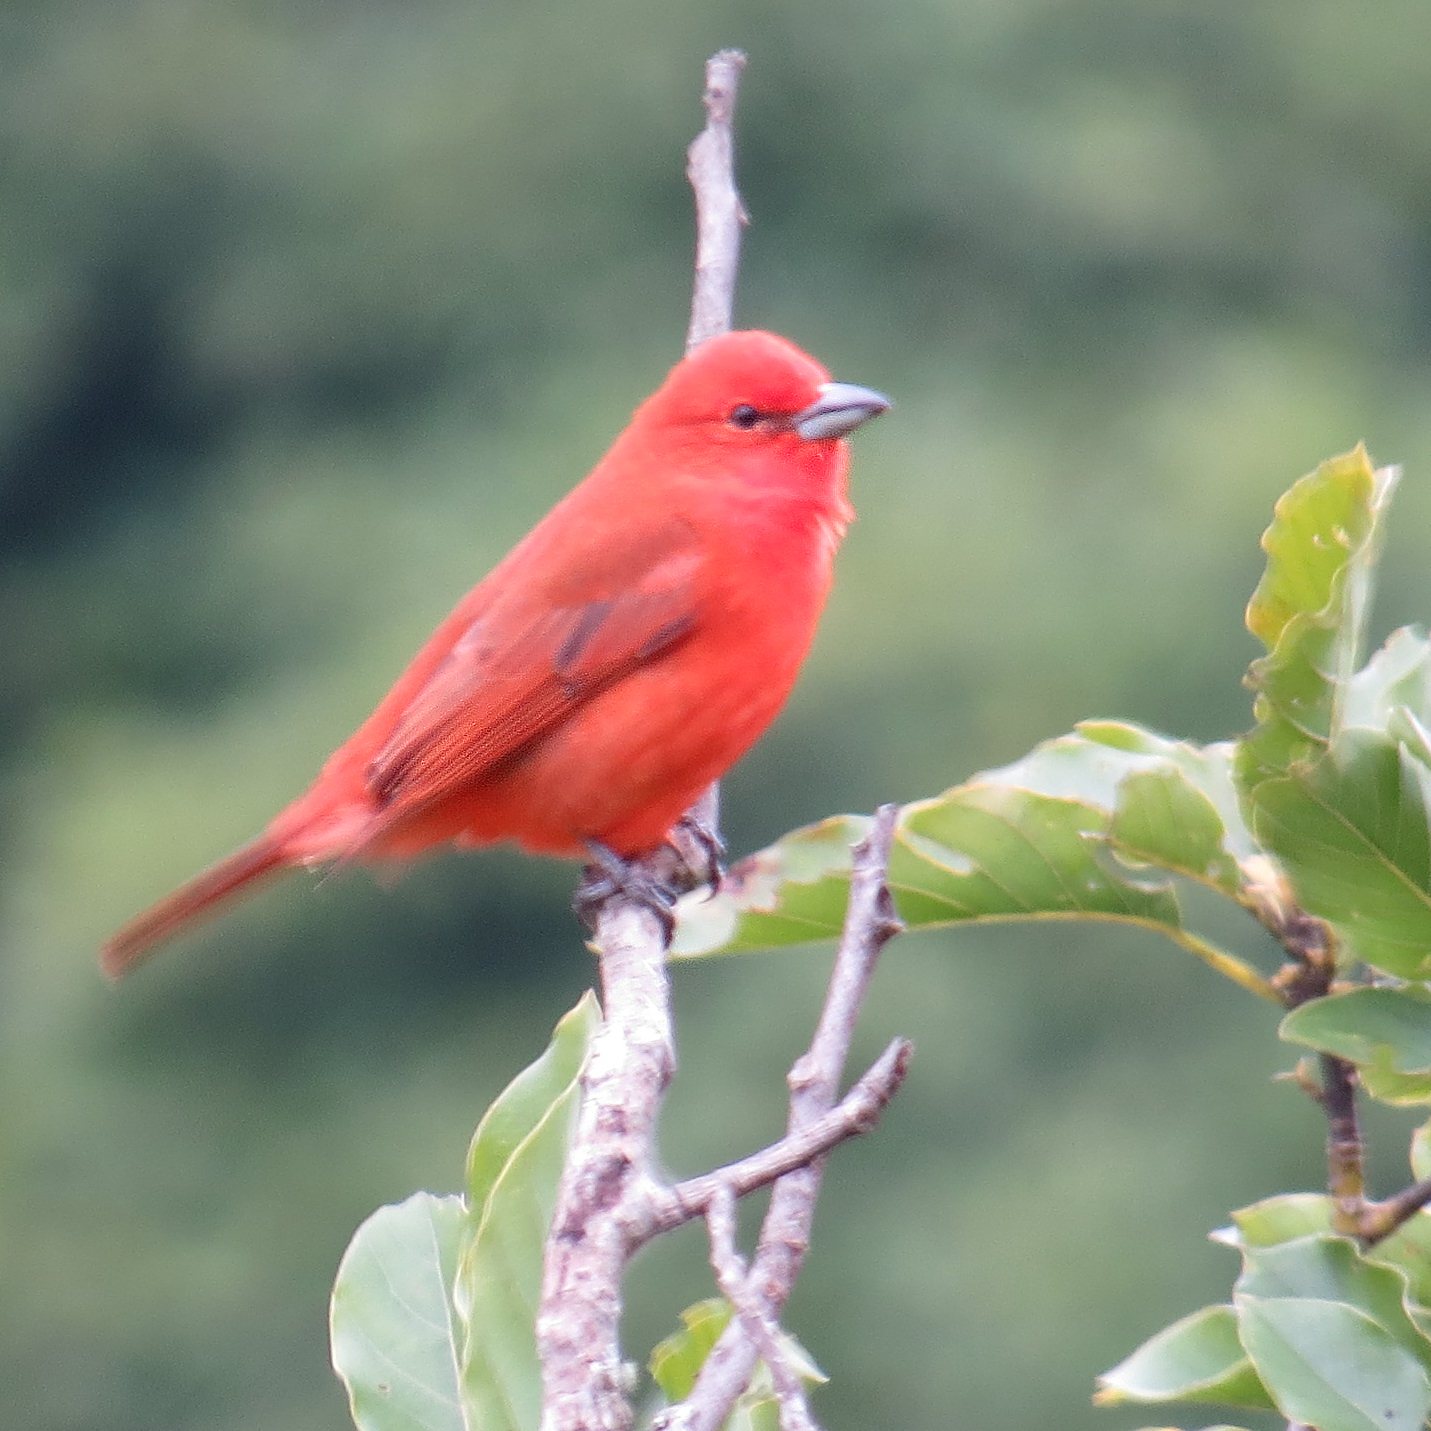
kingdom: Animalia
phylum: Chordata
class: Aves
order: Passeriformes
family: Cardinalidae
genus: Piranga
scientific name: Piranga flava
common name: Red tanager
